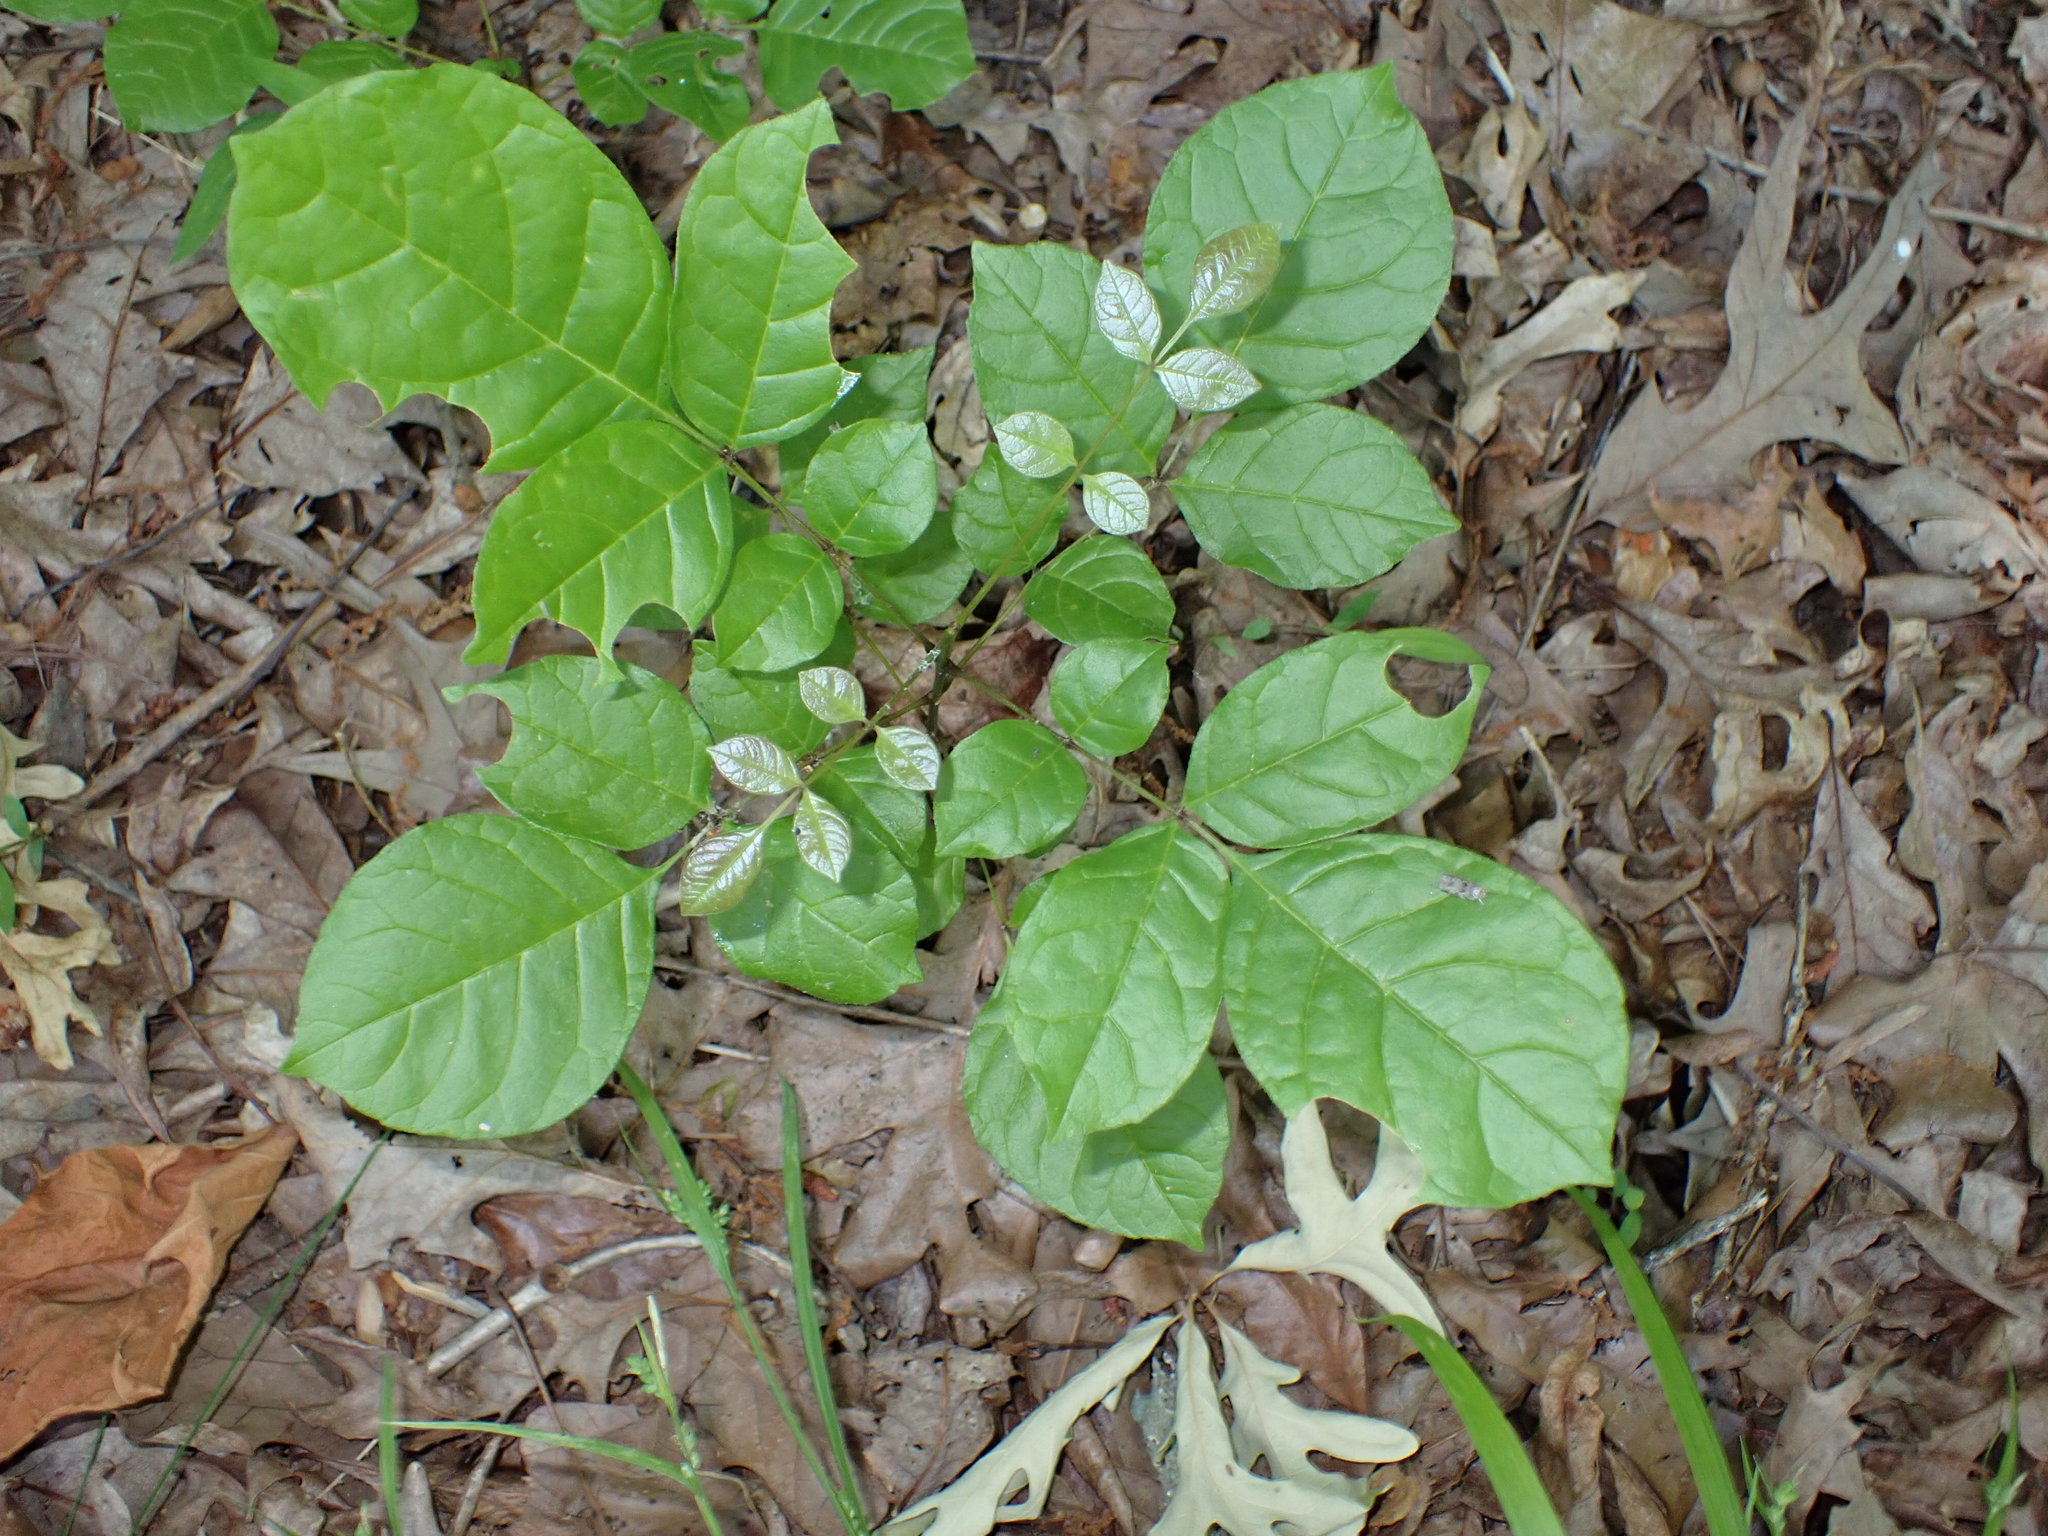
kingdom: Plantae
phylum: Tracheophyta
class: Magnoliopsida
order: Lamiales
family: Oleaceae
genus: Fraxinus
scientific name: Fraxinus americana
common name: White ash
